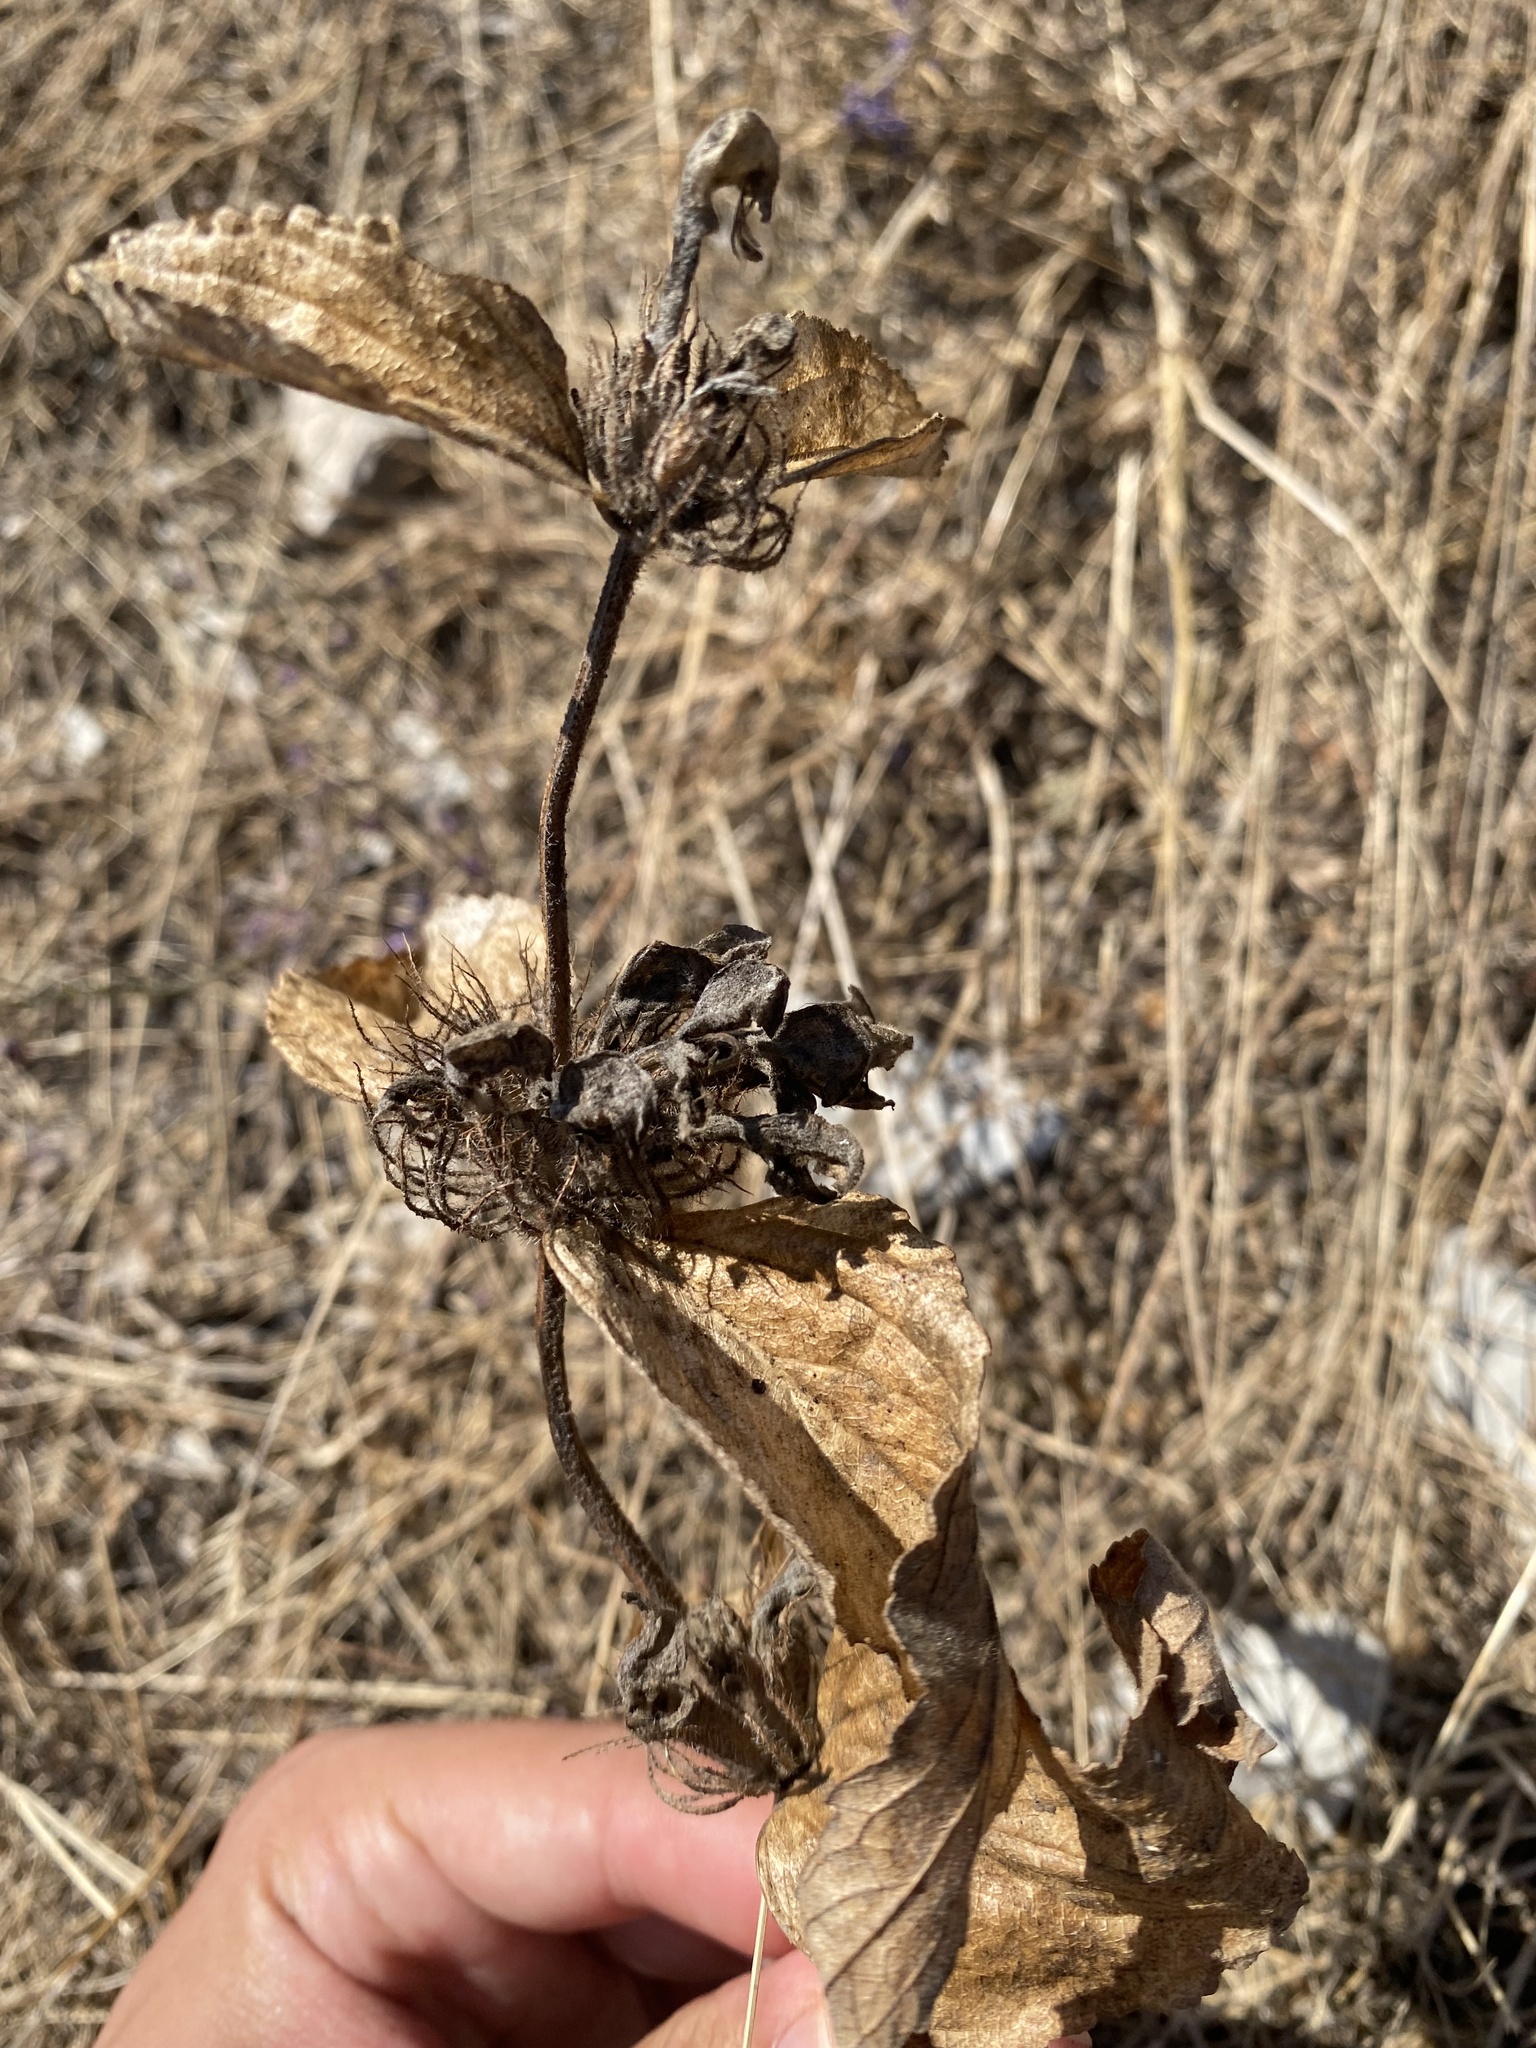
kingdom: Plantae
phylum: Tracheophyta
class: Magnoliopsida
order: Lamiales
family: Lamiaceae
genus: Phlomis
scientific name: Phlomis herba-venti
